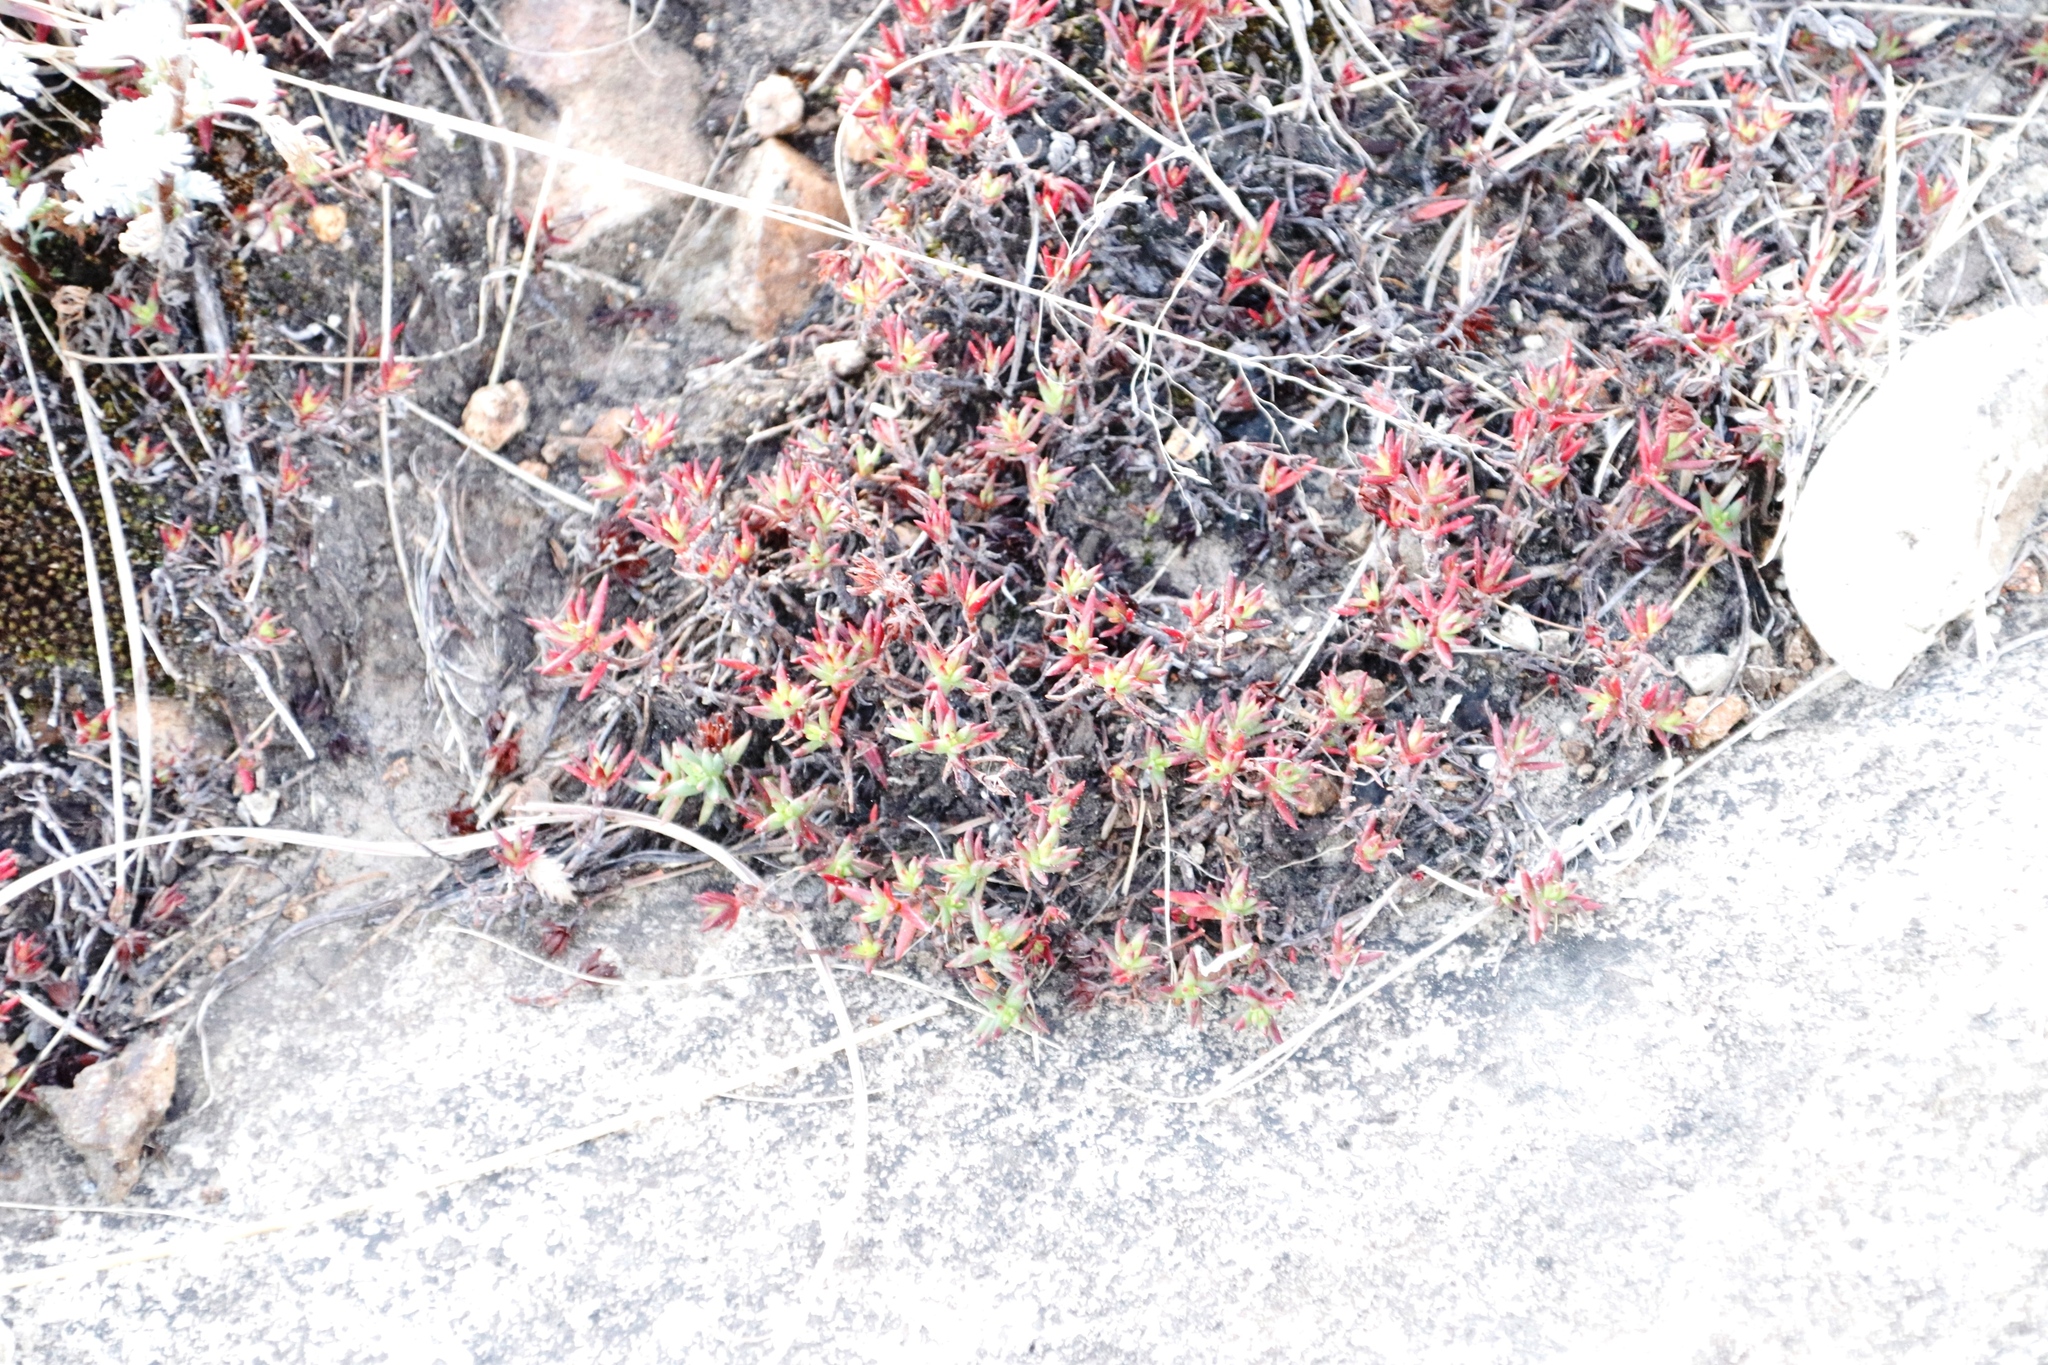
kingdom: Plantae
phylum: Tracheophyta
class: Magnoliopsida
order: Saxifragales
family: Crassulaceae
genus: Crassula
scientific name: Crassula dependens
